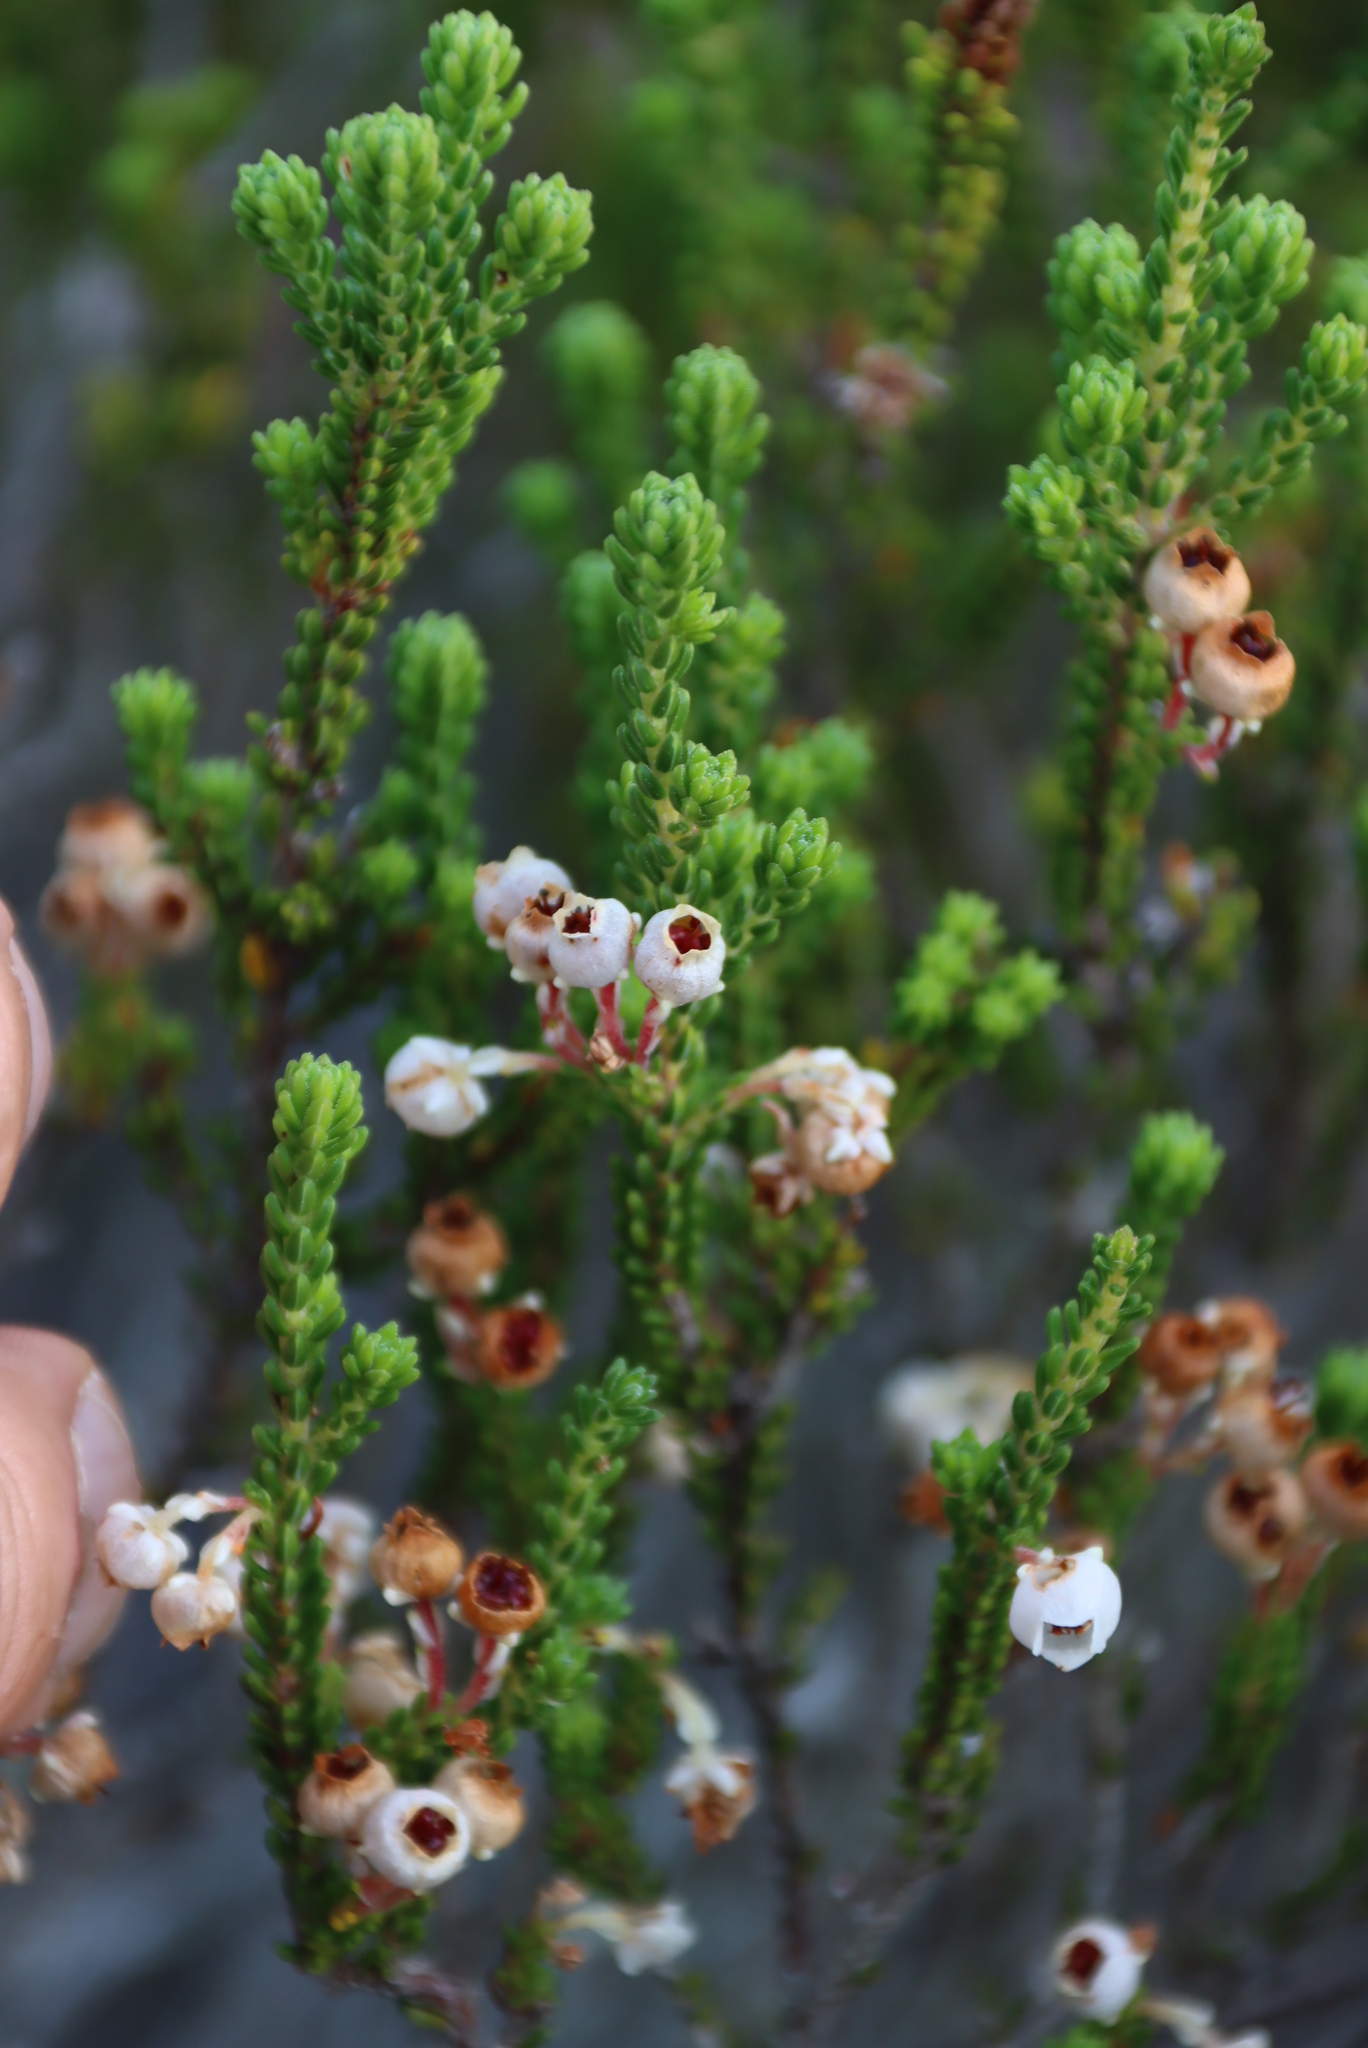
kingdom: Plantae
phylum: Tracheophyta
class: Magnoliopsida
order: Ericales
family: Ericaceae
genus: Erica
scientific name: Erica spectabilis
